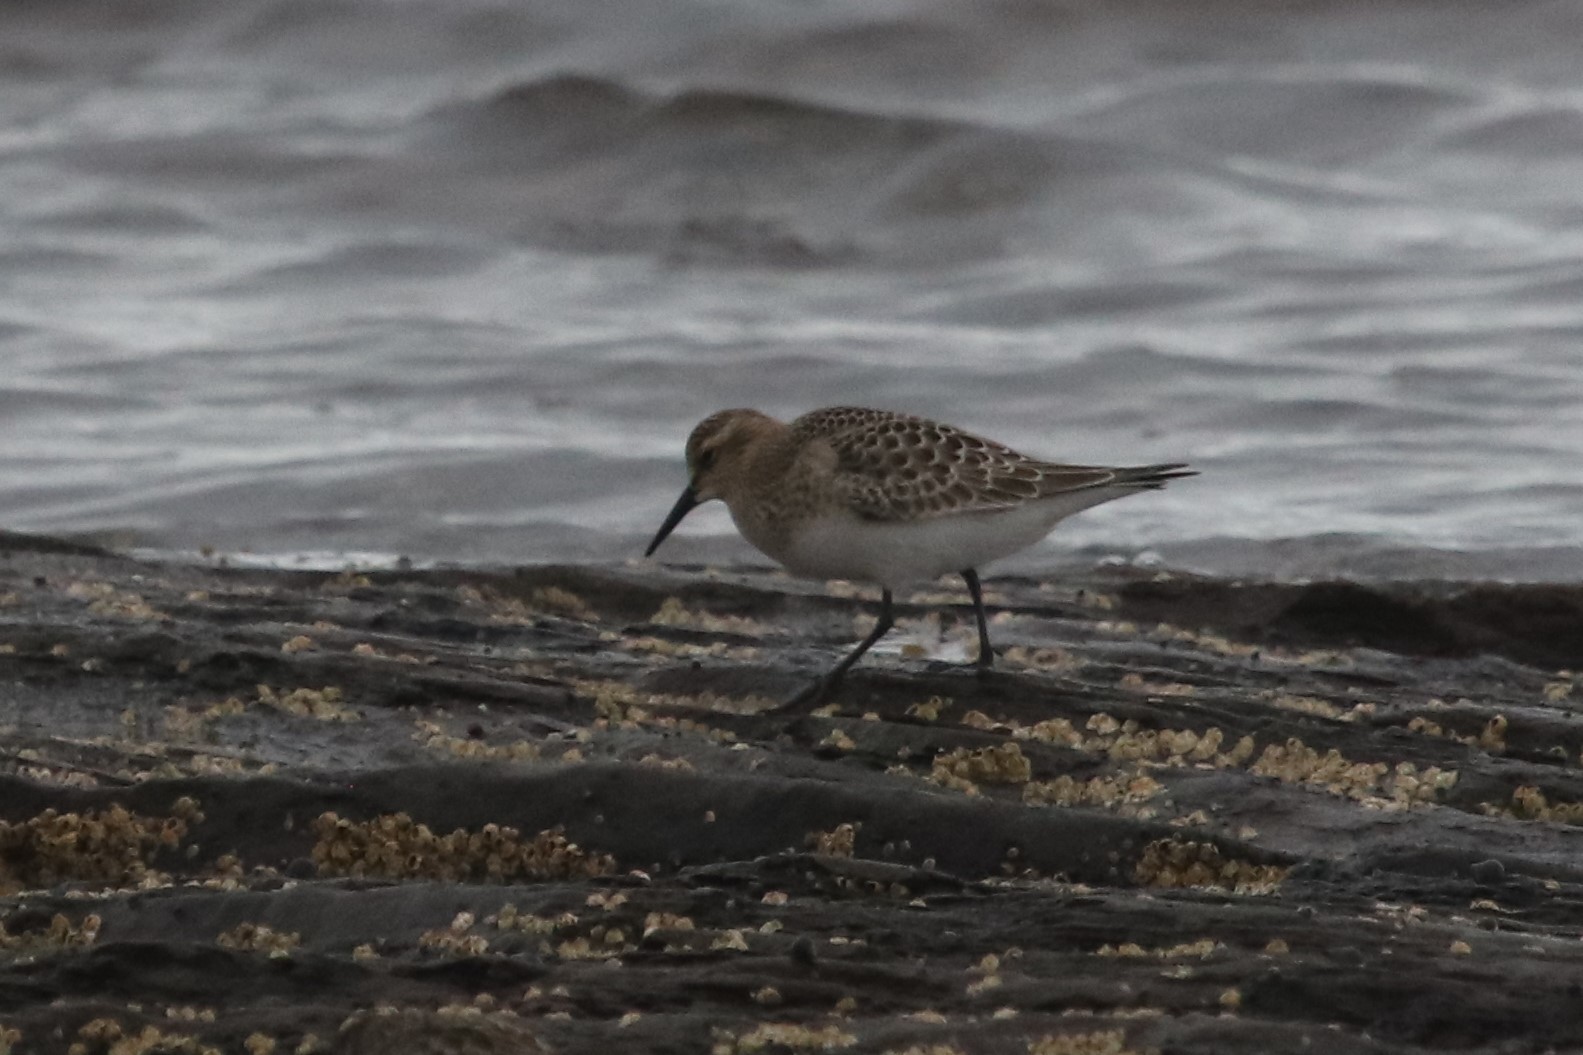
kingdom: Animalia
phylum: Chordata
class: Aves
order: Charadriiformes
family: Scolopacidae
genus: Calidris
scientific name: Calidris bairdii
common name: Baird's sandpiper
